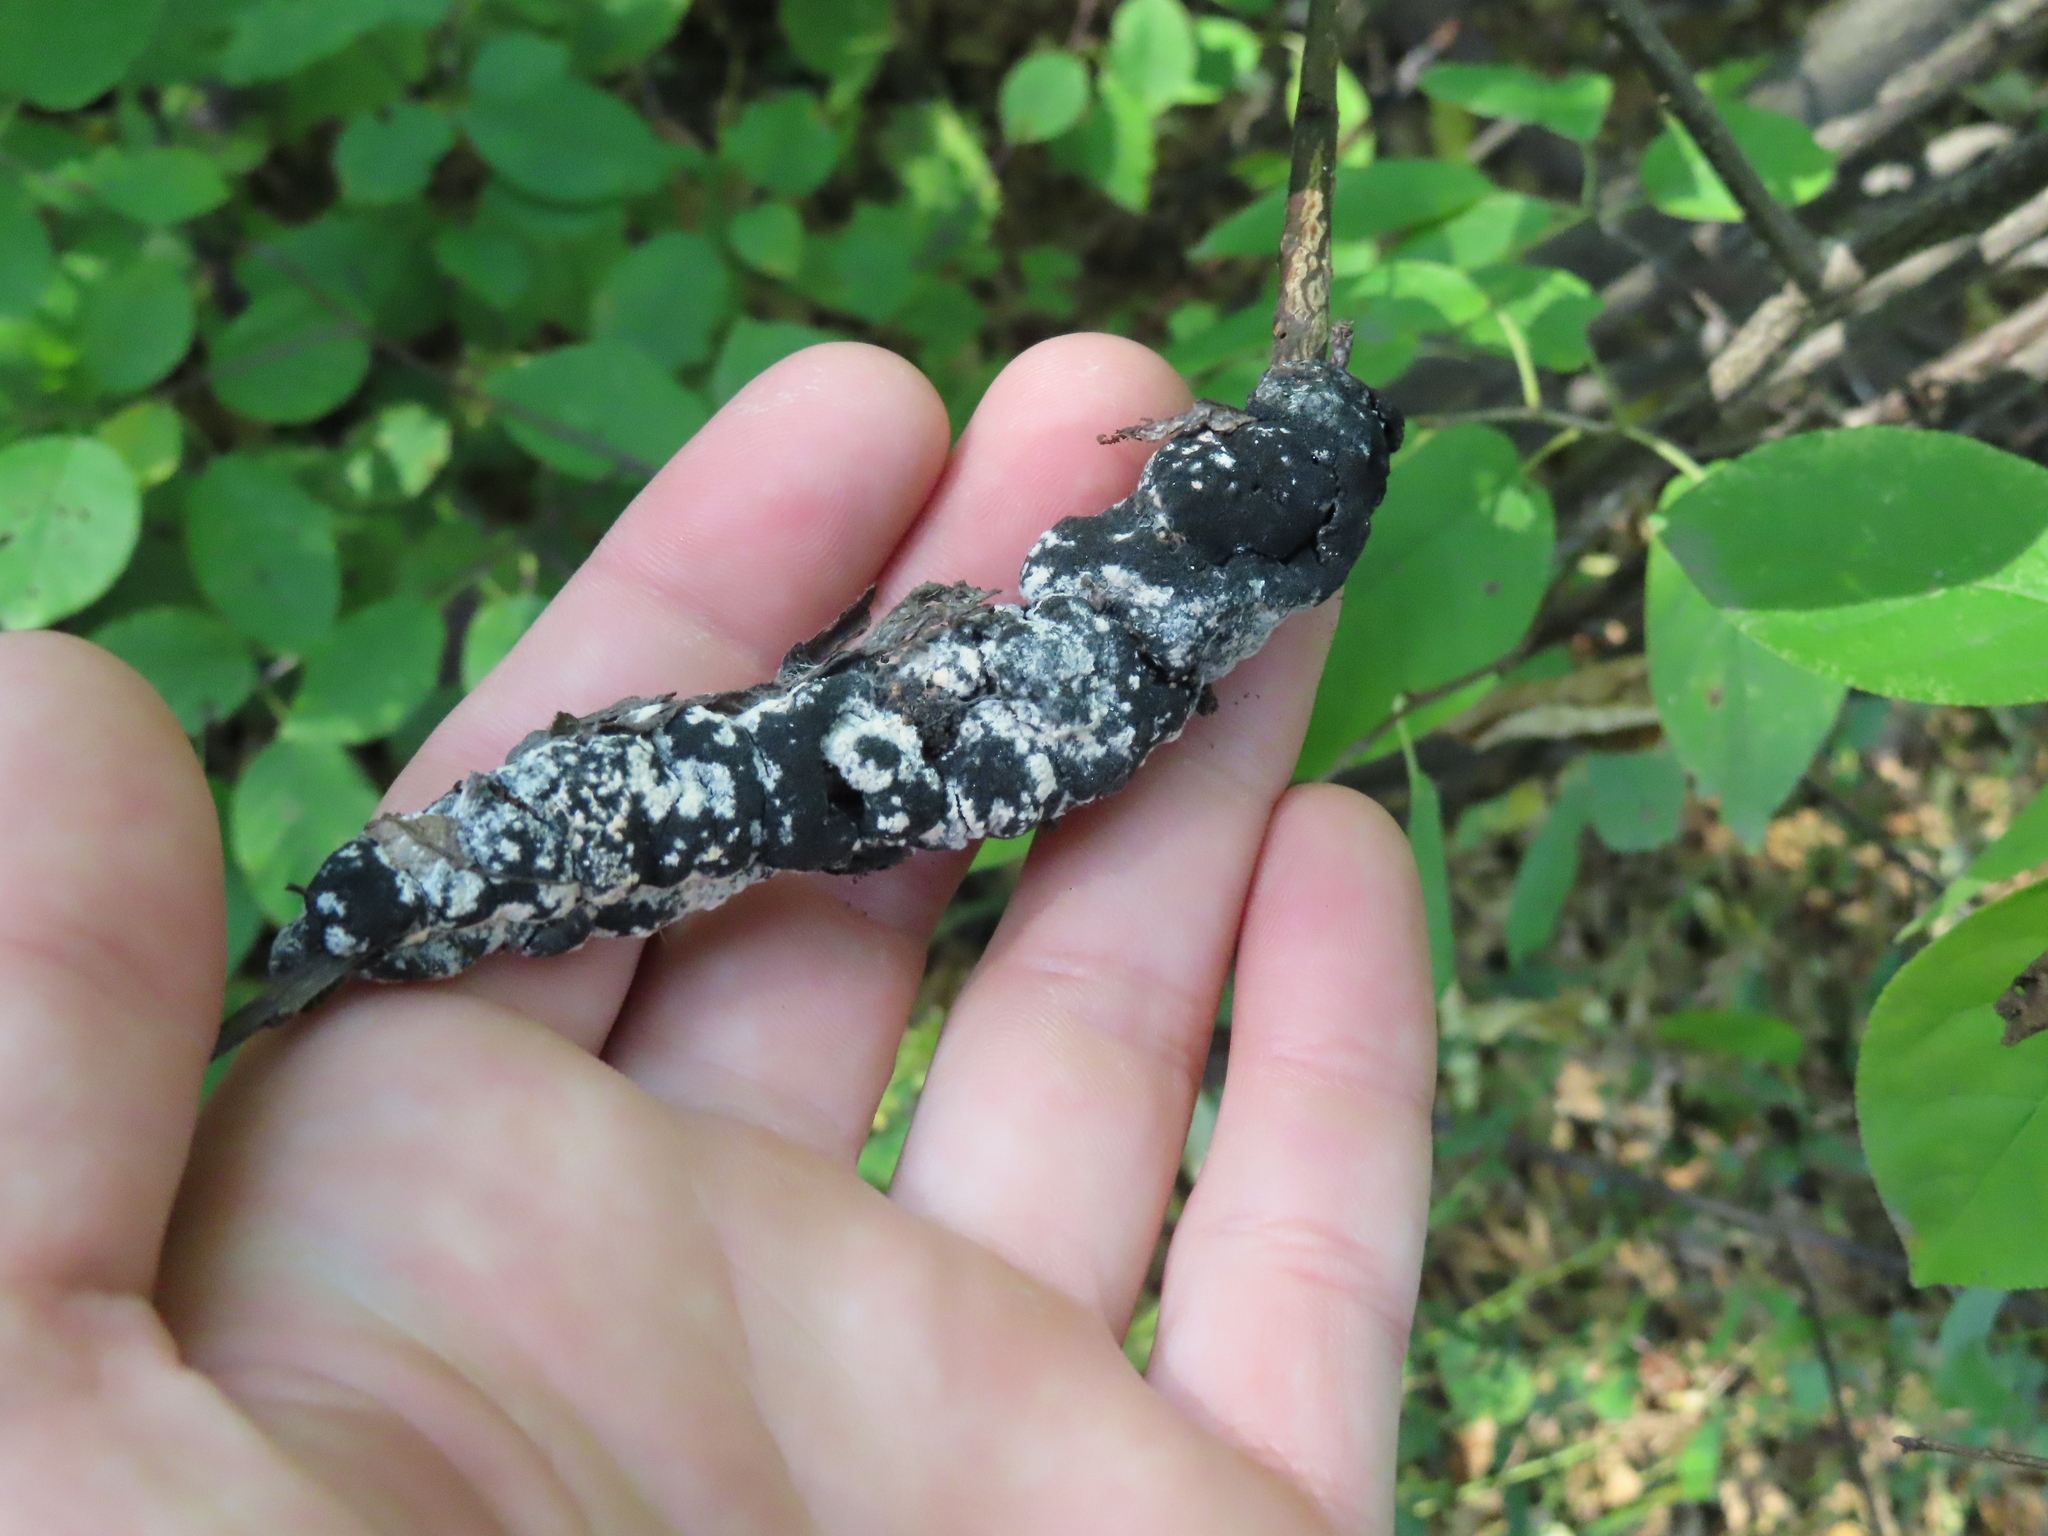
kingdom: Fungi
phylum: Ascomycota
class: Dothideomycetes
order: Venturiales
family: Venturiaceae
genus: Apiosporina
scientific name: Apiosporina morbosa
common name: Black knot
